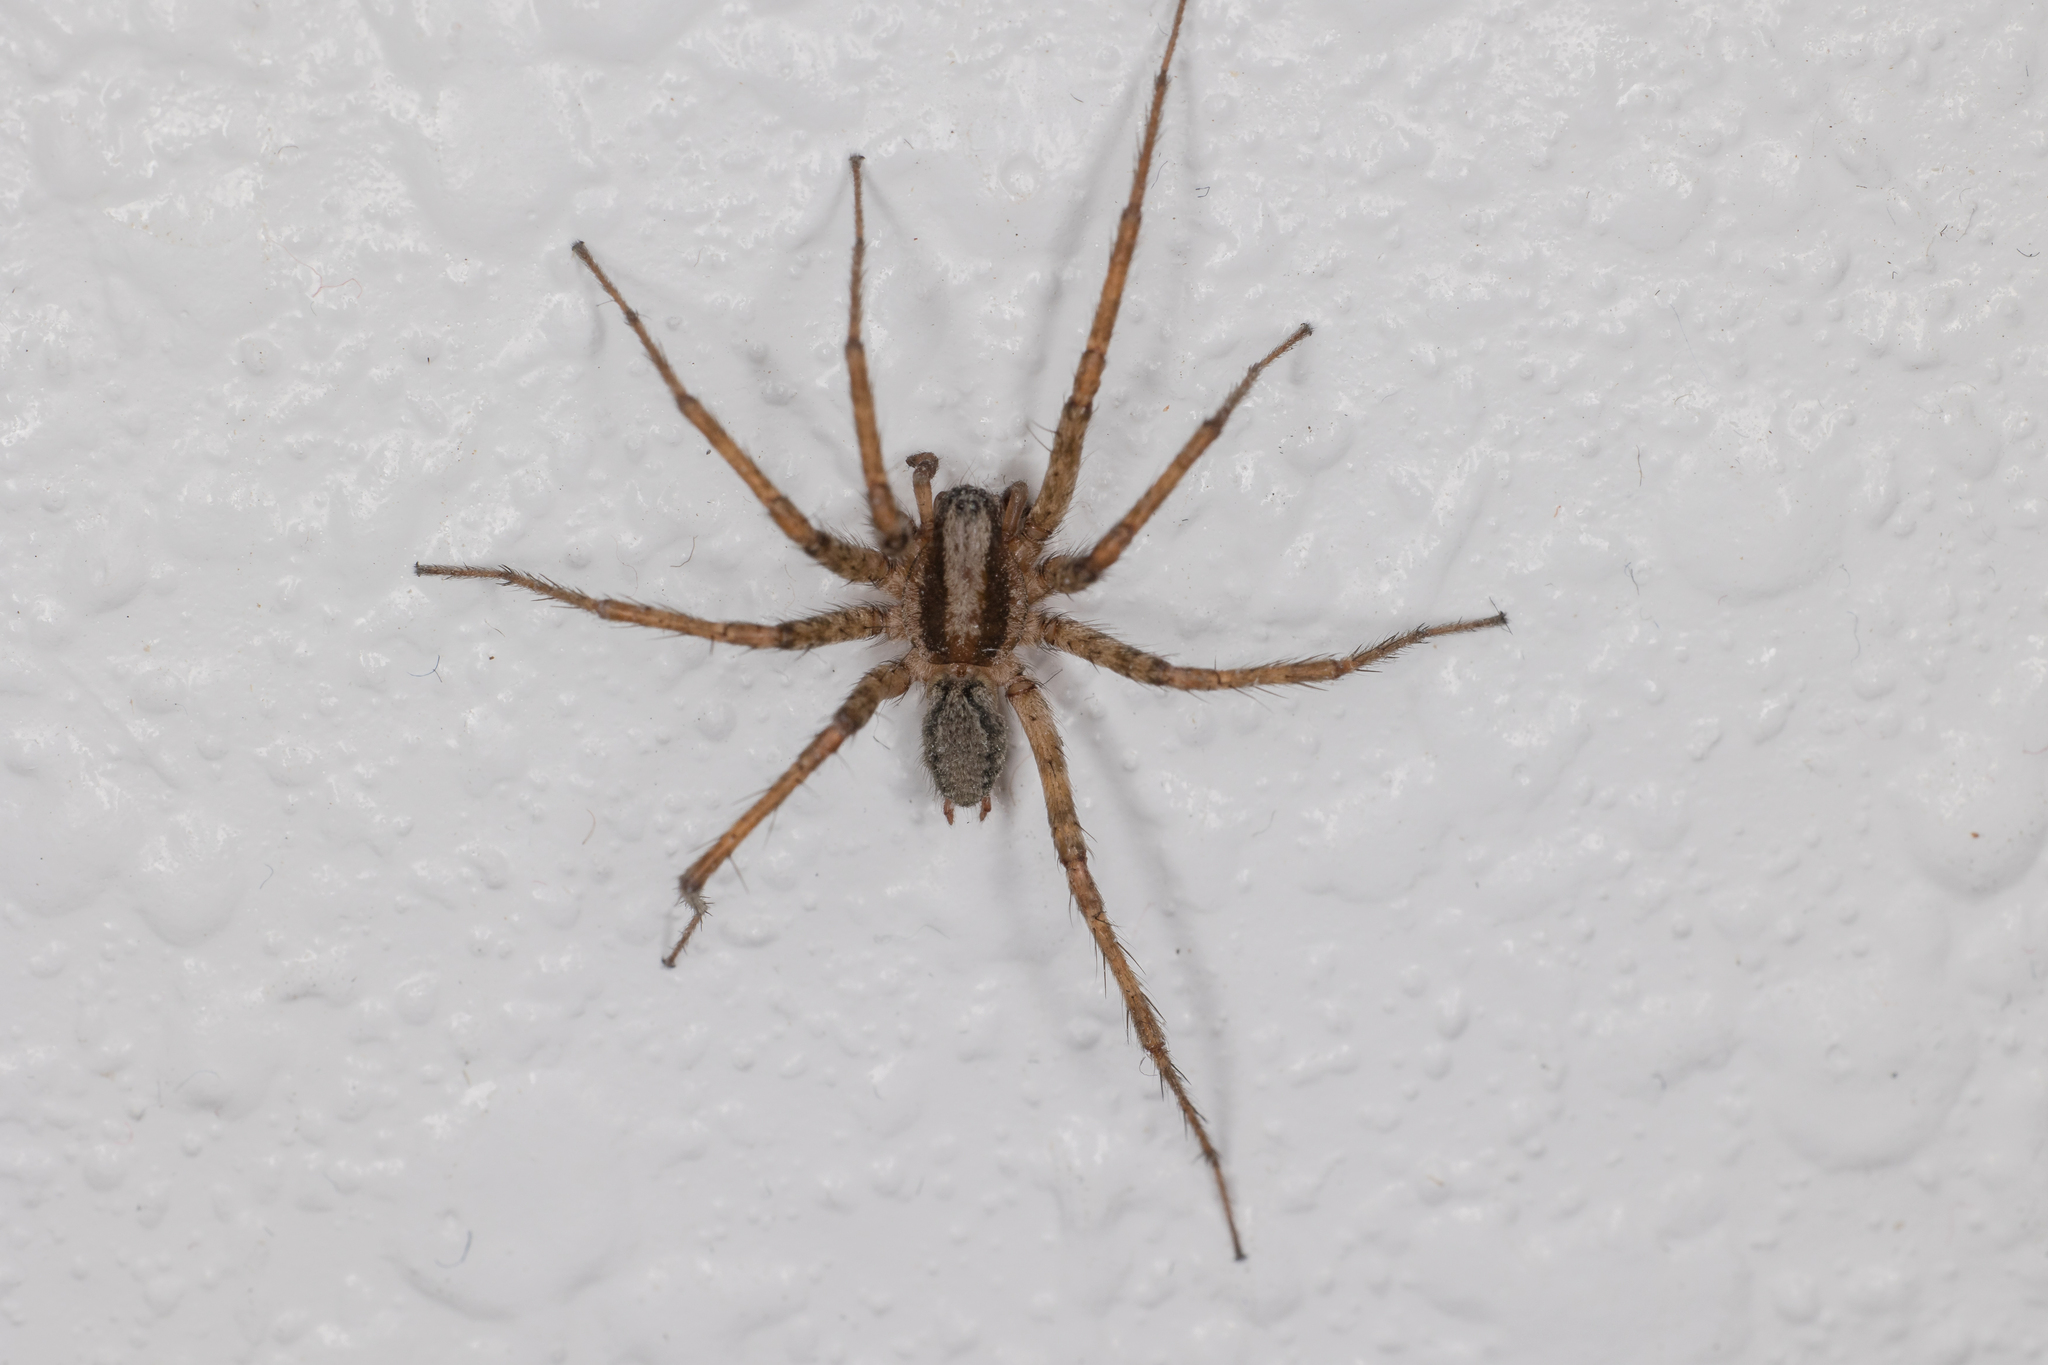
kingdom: Animalia
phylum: Arthropoda
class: Arachnida
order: Araneae
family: Agelenidae
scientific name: Agelenidae
